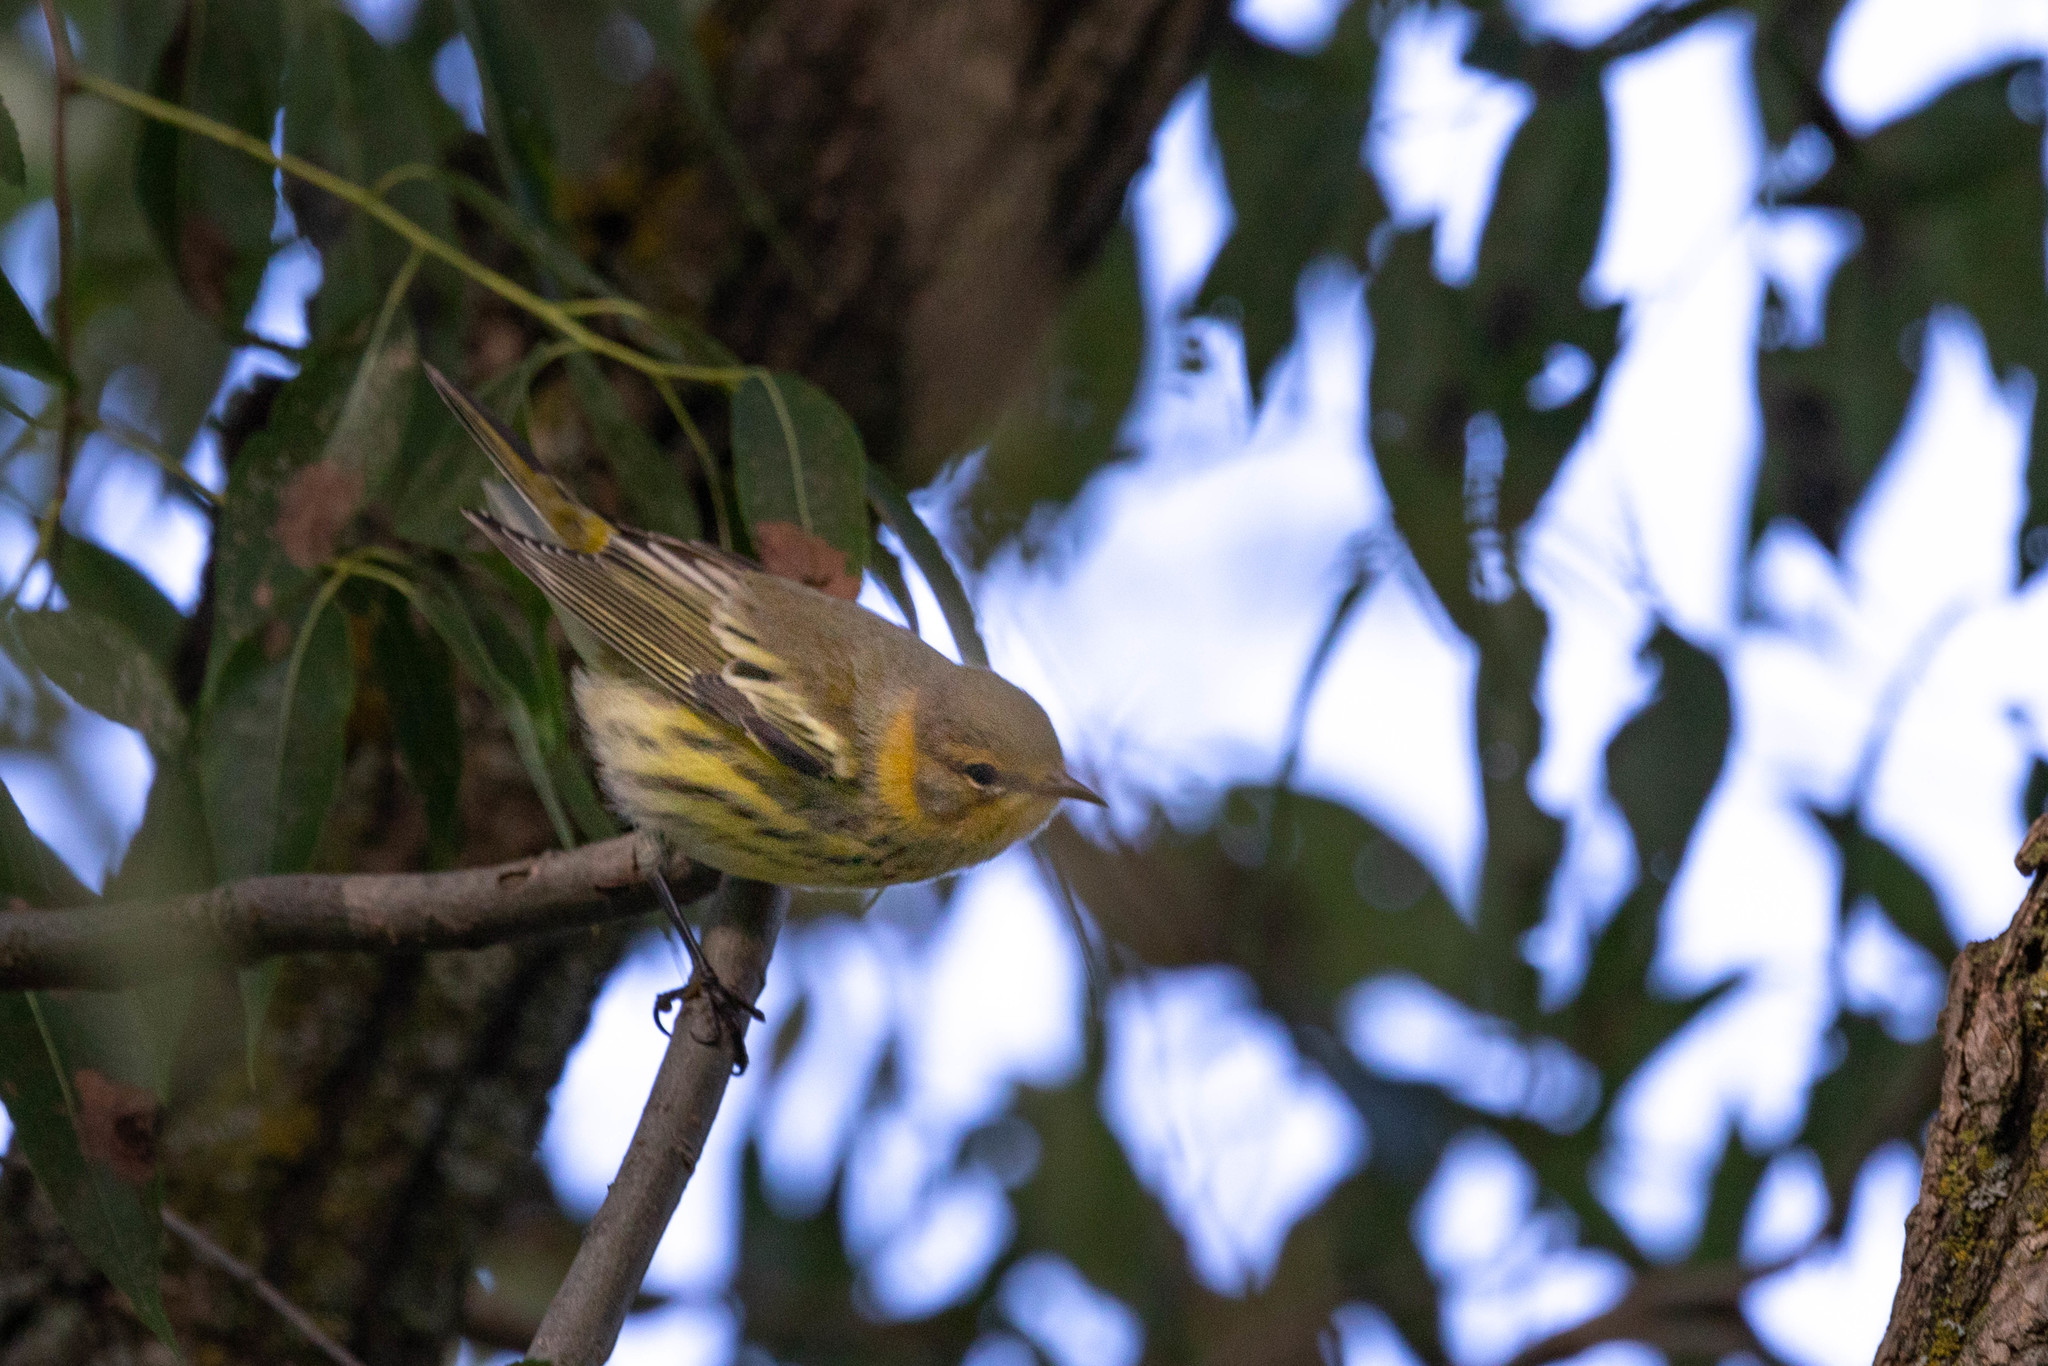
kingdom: Animalia
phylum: Chordata
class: Aves
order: Passeriformes
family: Parulidae
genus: Setophaga
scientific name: Setophaga tigrina
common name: Cape may warbler
